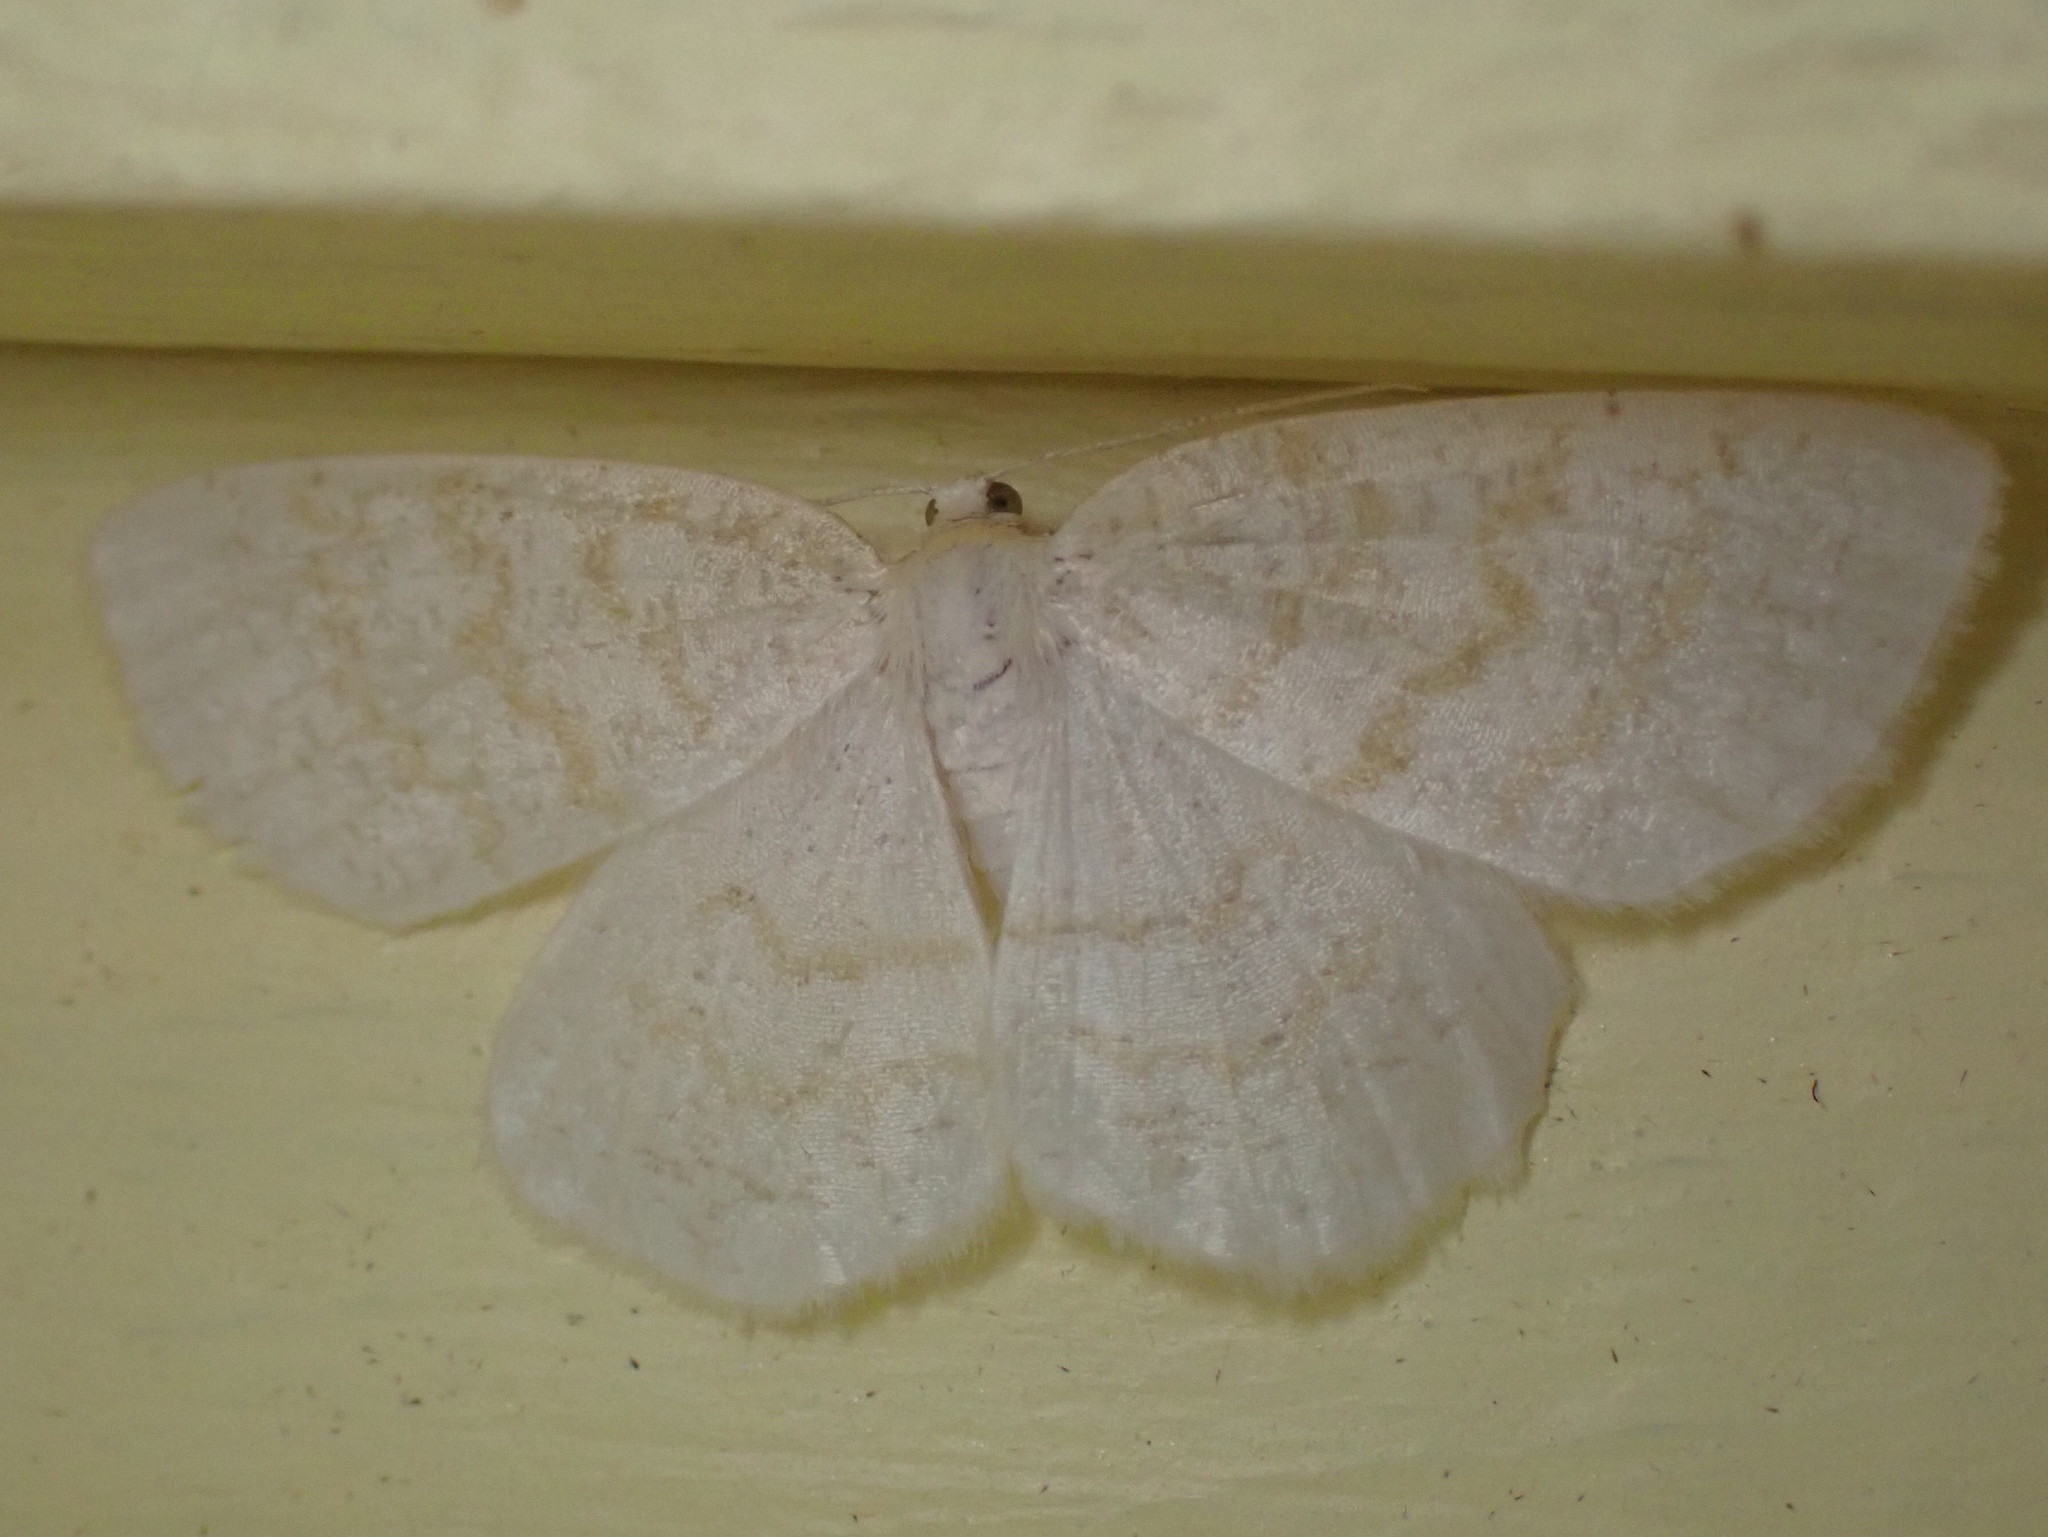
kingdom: Animalia
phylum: Arthropoda
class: Insecta
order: Lepidoptera
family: Geometridae
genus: Cabera
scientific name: Cabera erythemaria
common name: Yellow-dusted cream moth
